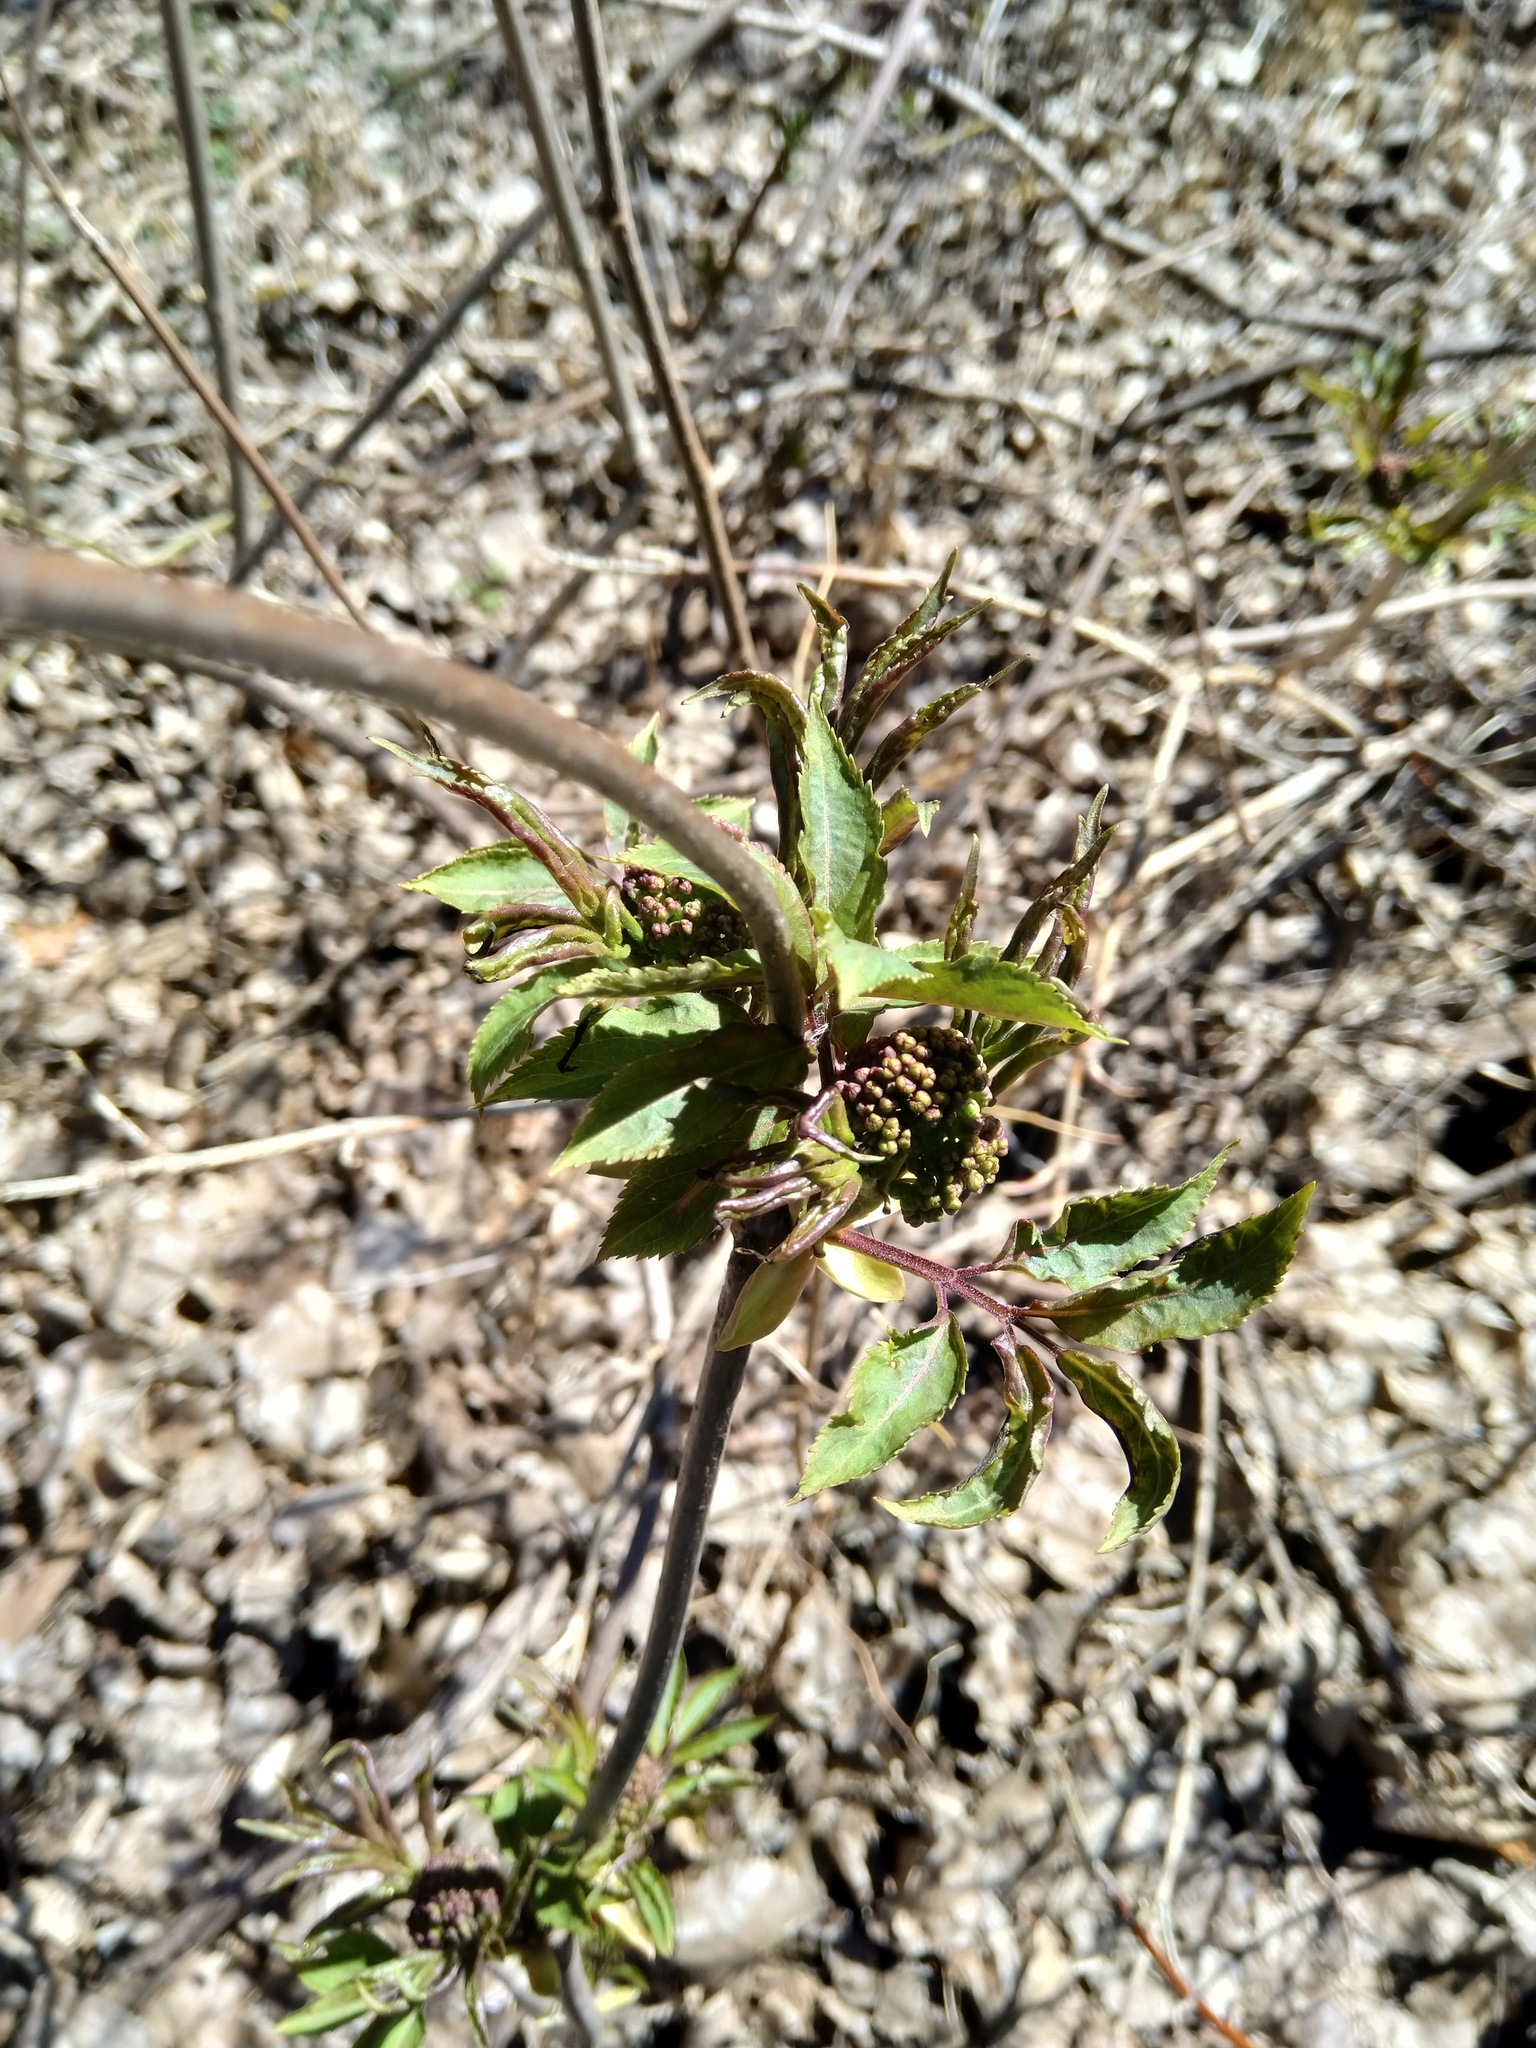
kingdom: Plantae
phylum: Tracheophyta
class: Magnoliopsida
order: Dipsacales
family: Viburnaceae
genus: Sambucus
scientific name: Sambucus racemosa
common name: Red-berried elder
